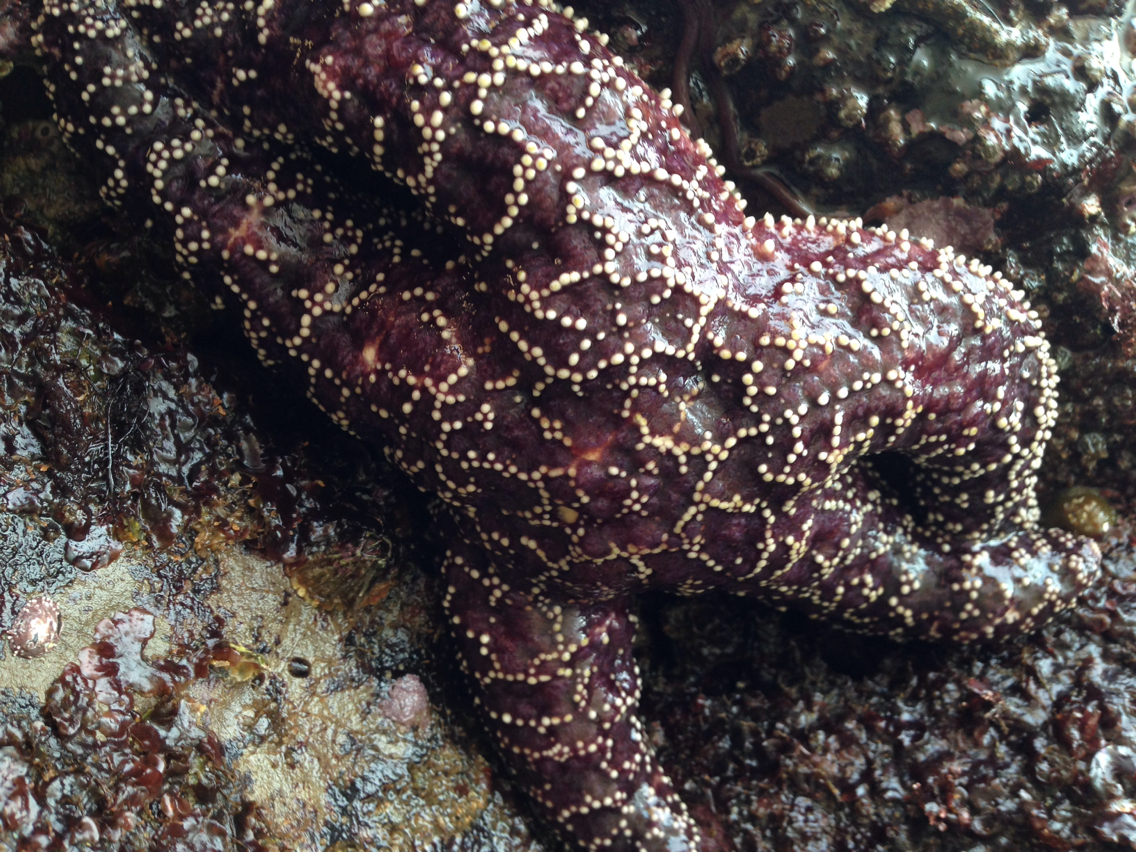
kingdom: Animalia
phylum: Echinodermata
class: Asteroidea
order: Forcipulatida
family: Asteriidae
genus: Pisaster
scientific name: Pisaster ochraceus
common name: Ochre stars
